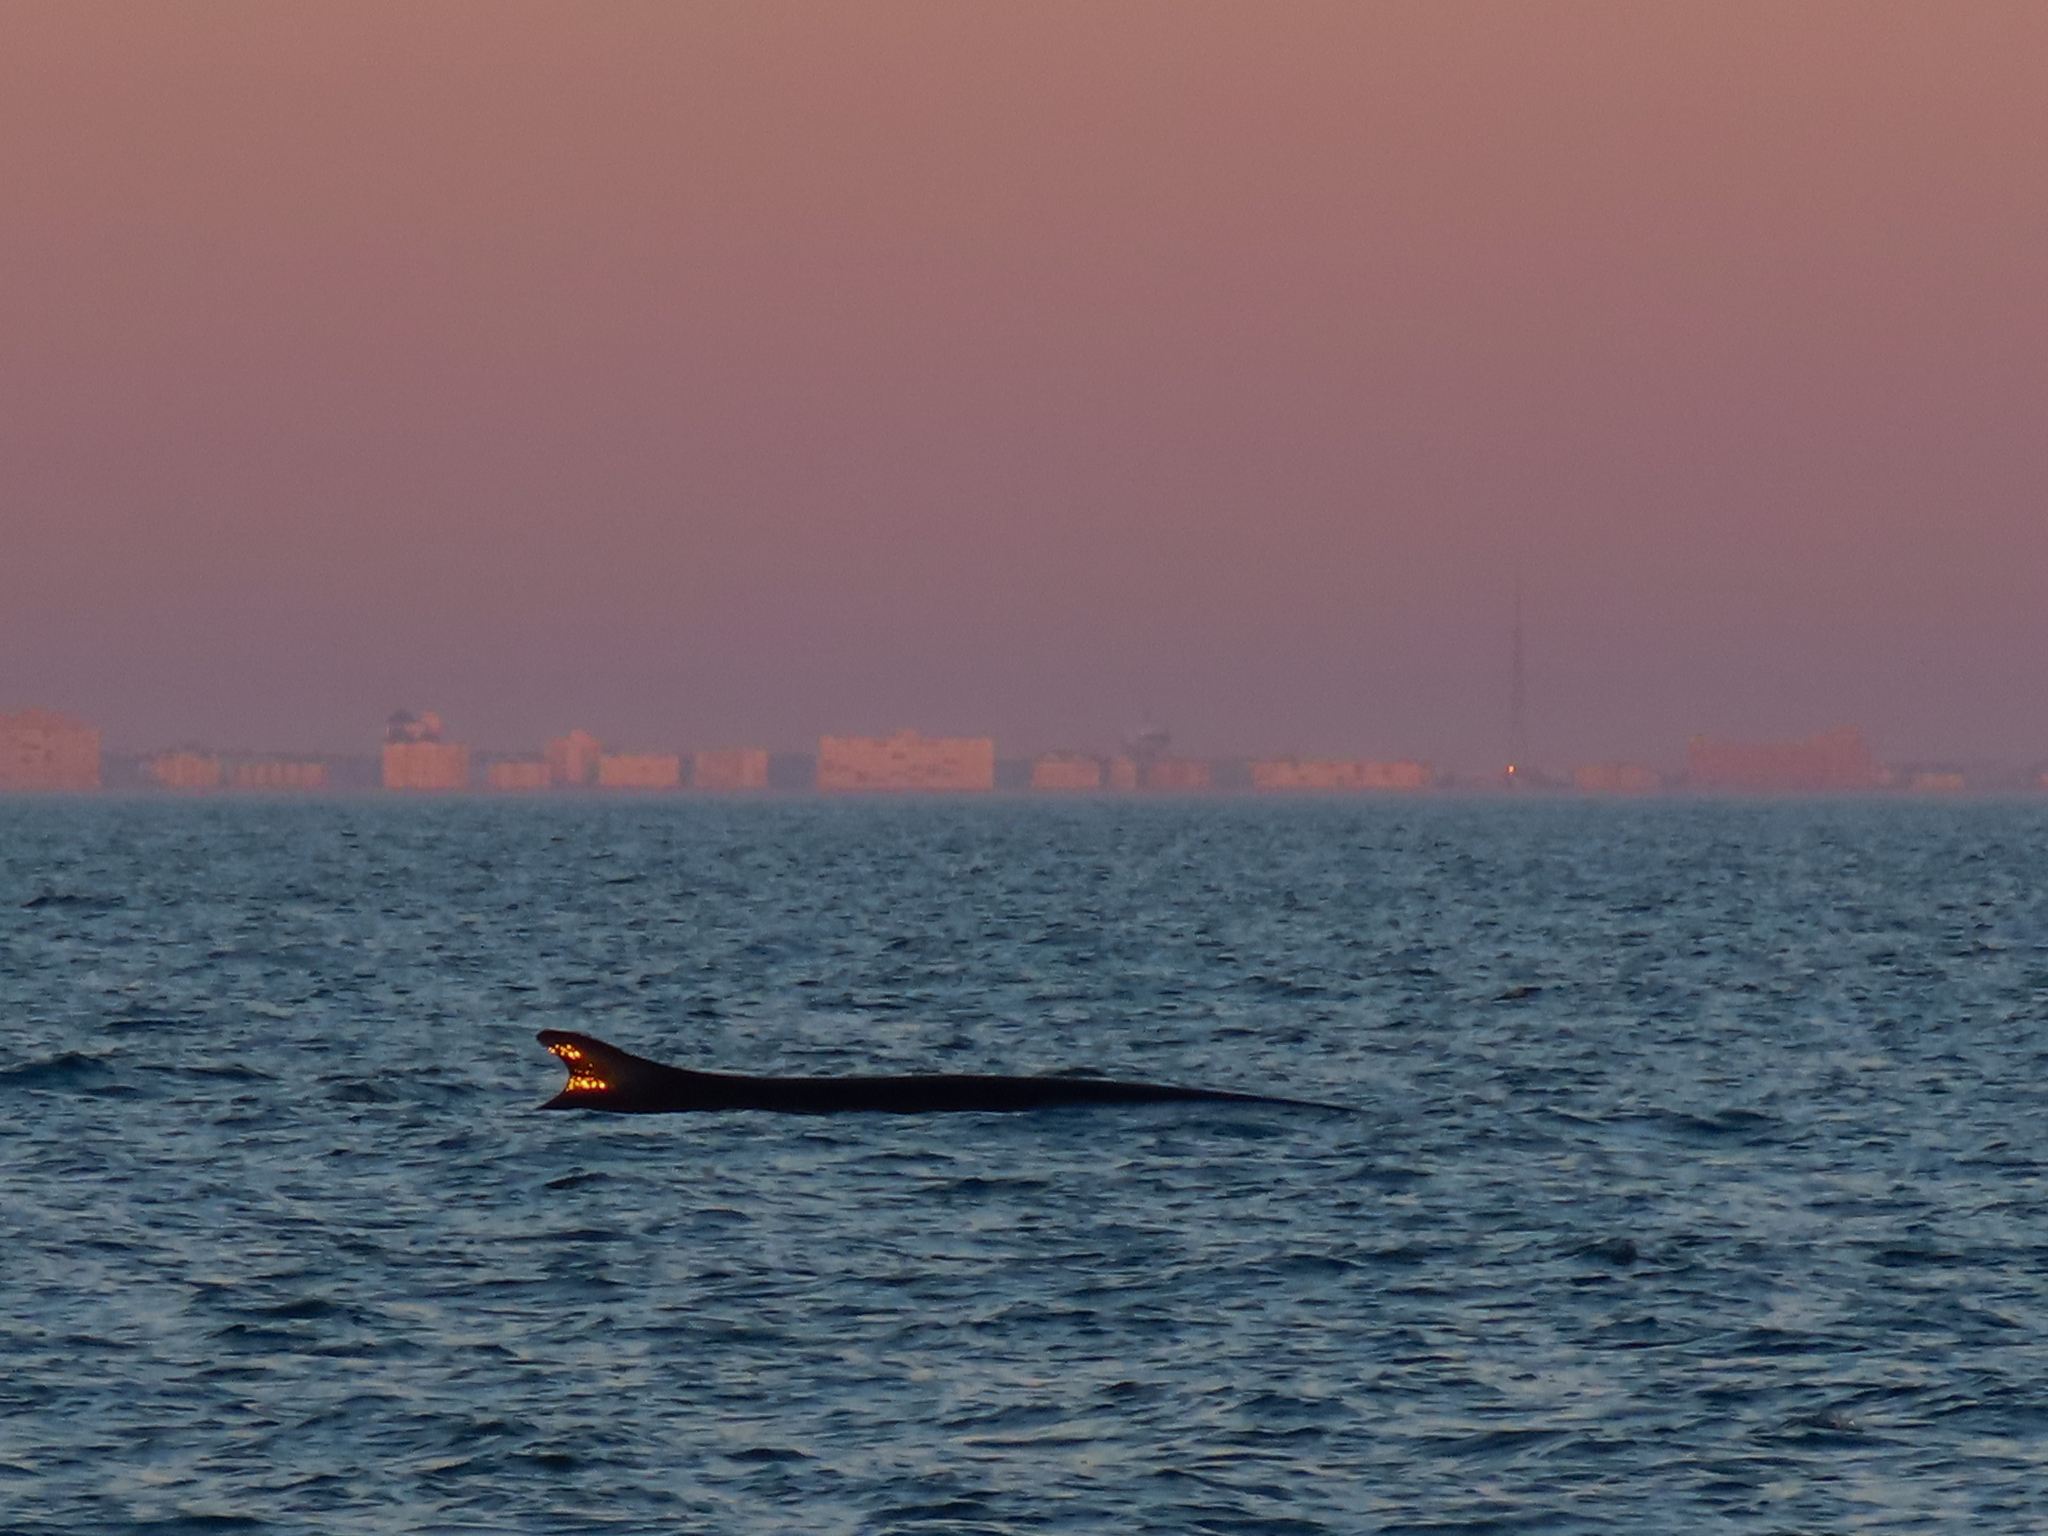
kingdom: Animalia
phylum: Chordata
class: Mammalia
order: Cetacea
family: Balaenopteridae
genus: Balaenoptera
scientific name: Balaenoptera physalus
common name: Fin whale
